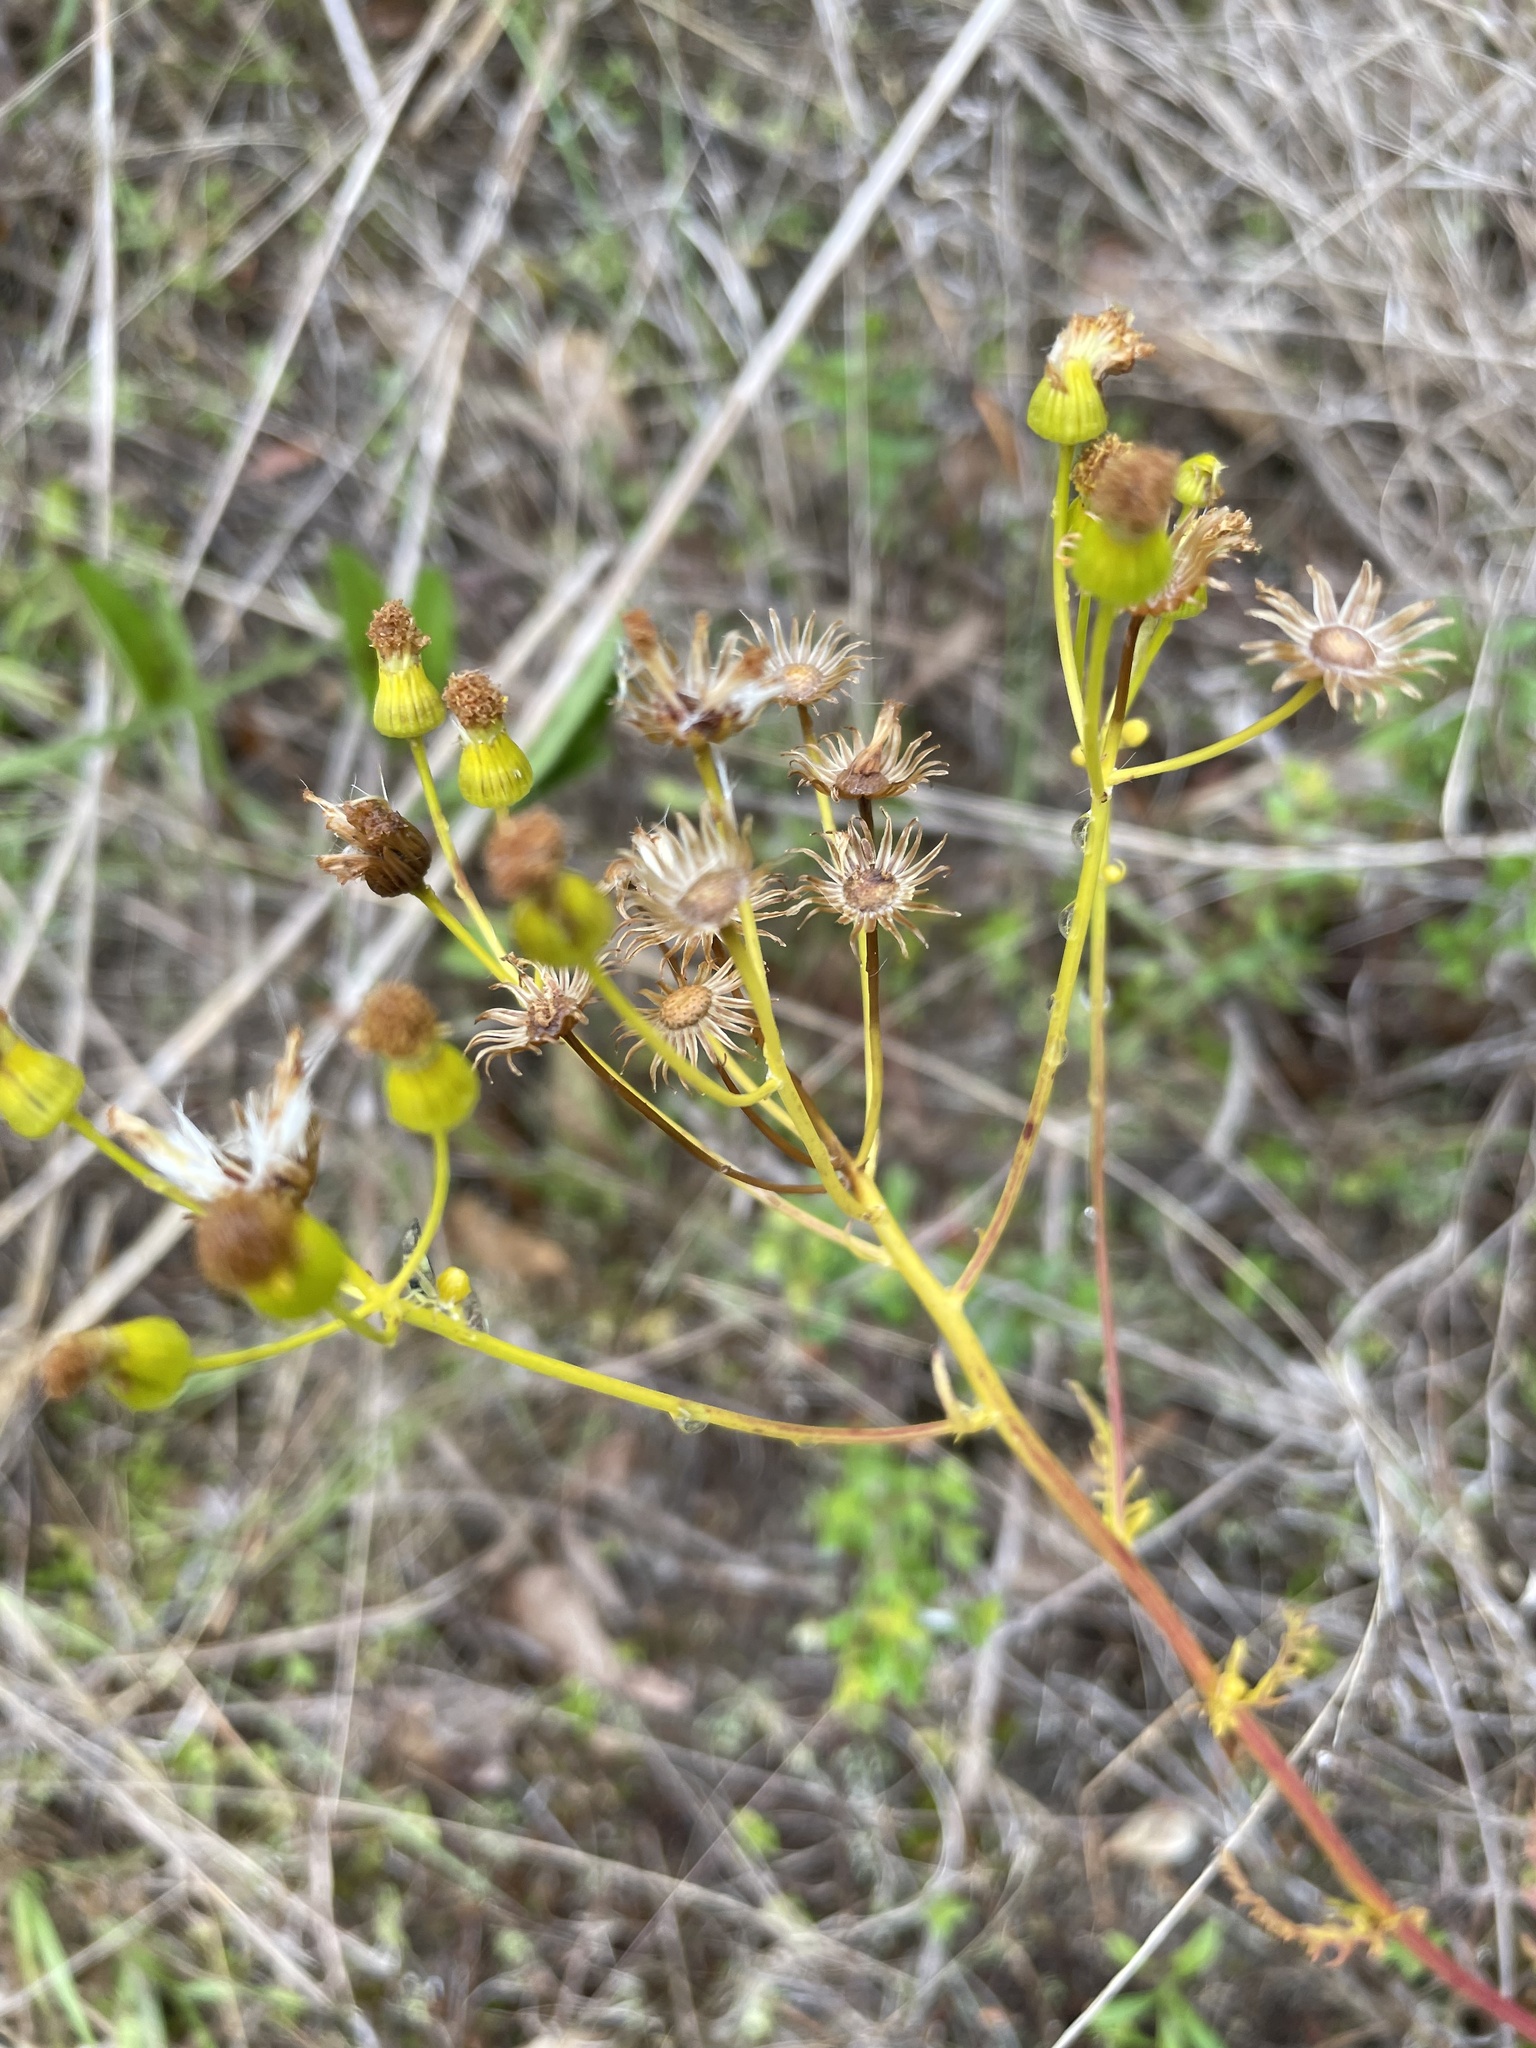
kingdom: Plantae
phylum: Tracheophyta
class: Magnoliopsida
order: Asterales
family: Asteraceae
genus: Packera
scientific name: Packera anonyma
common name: Small ragwort
